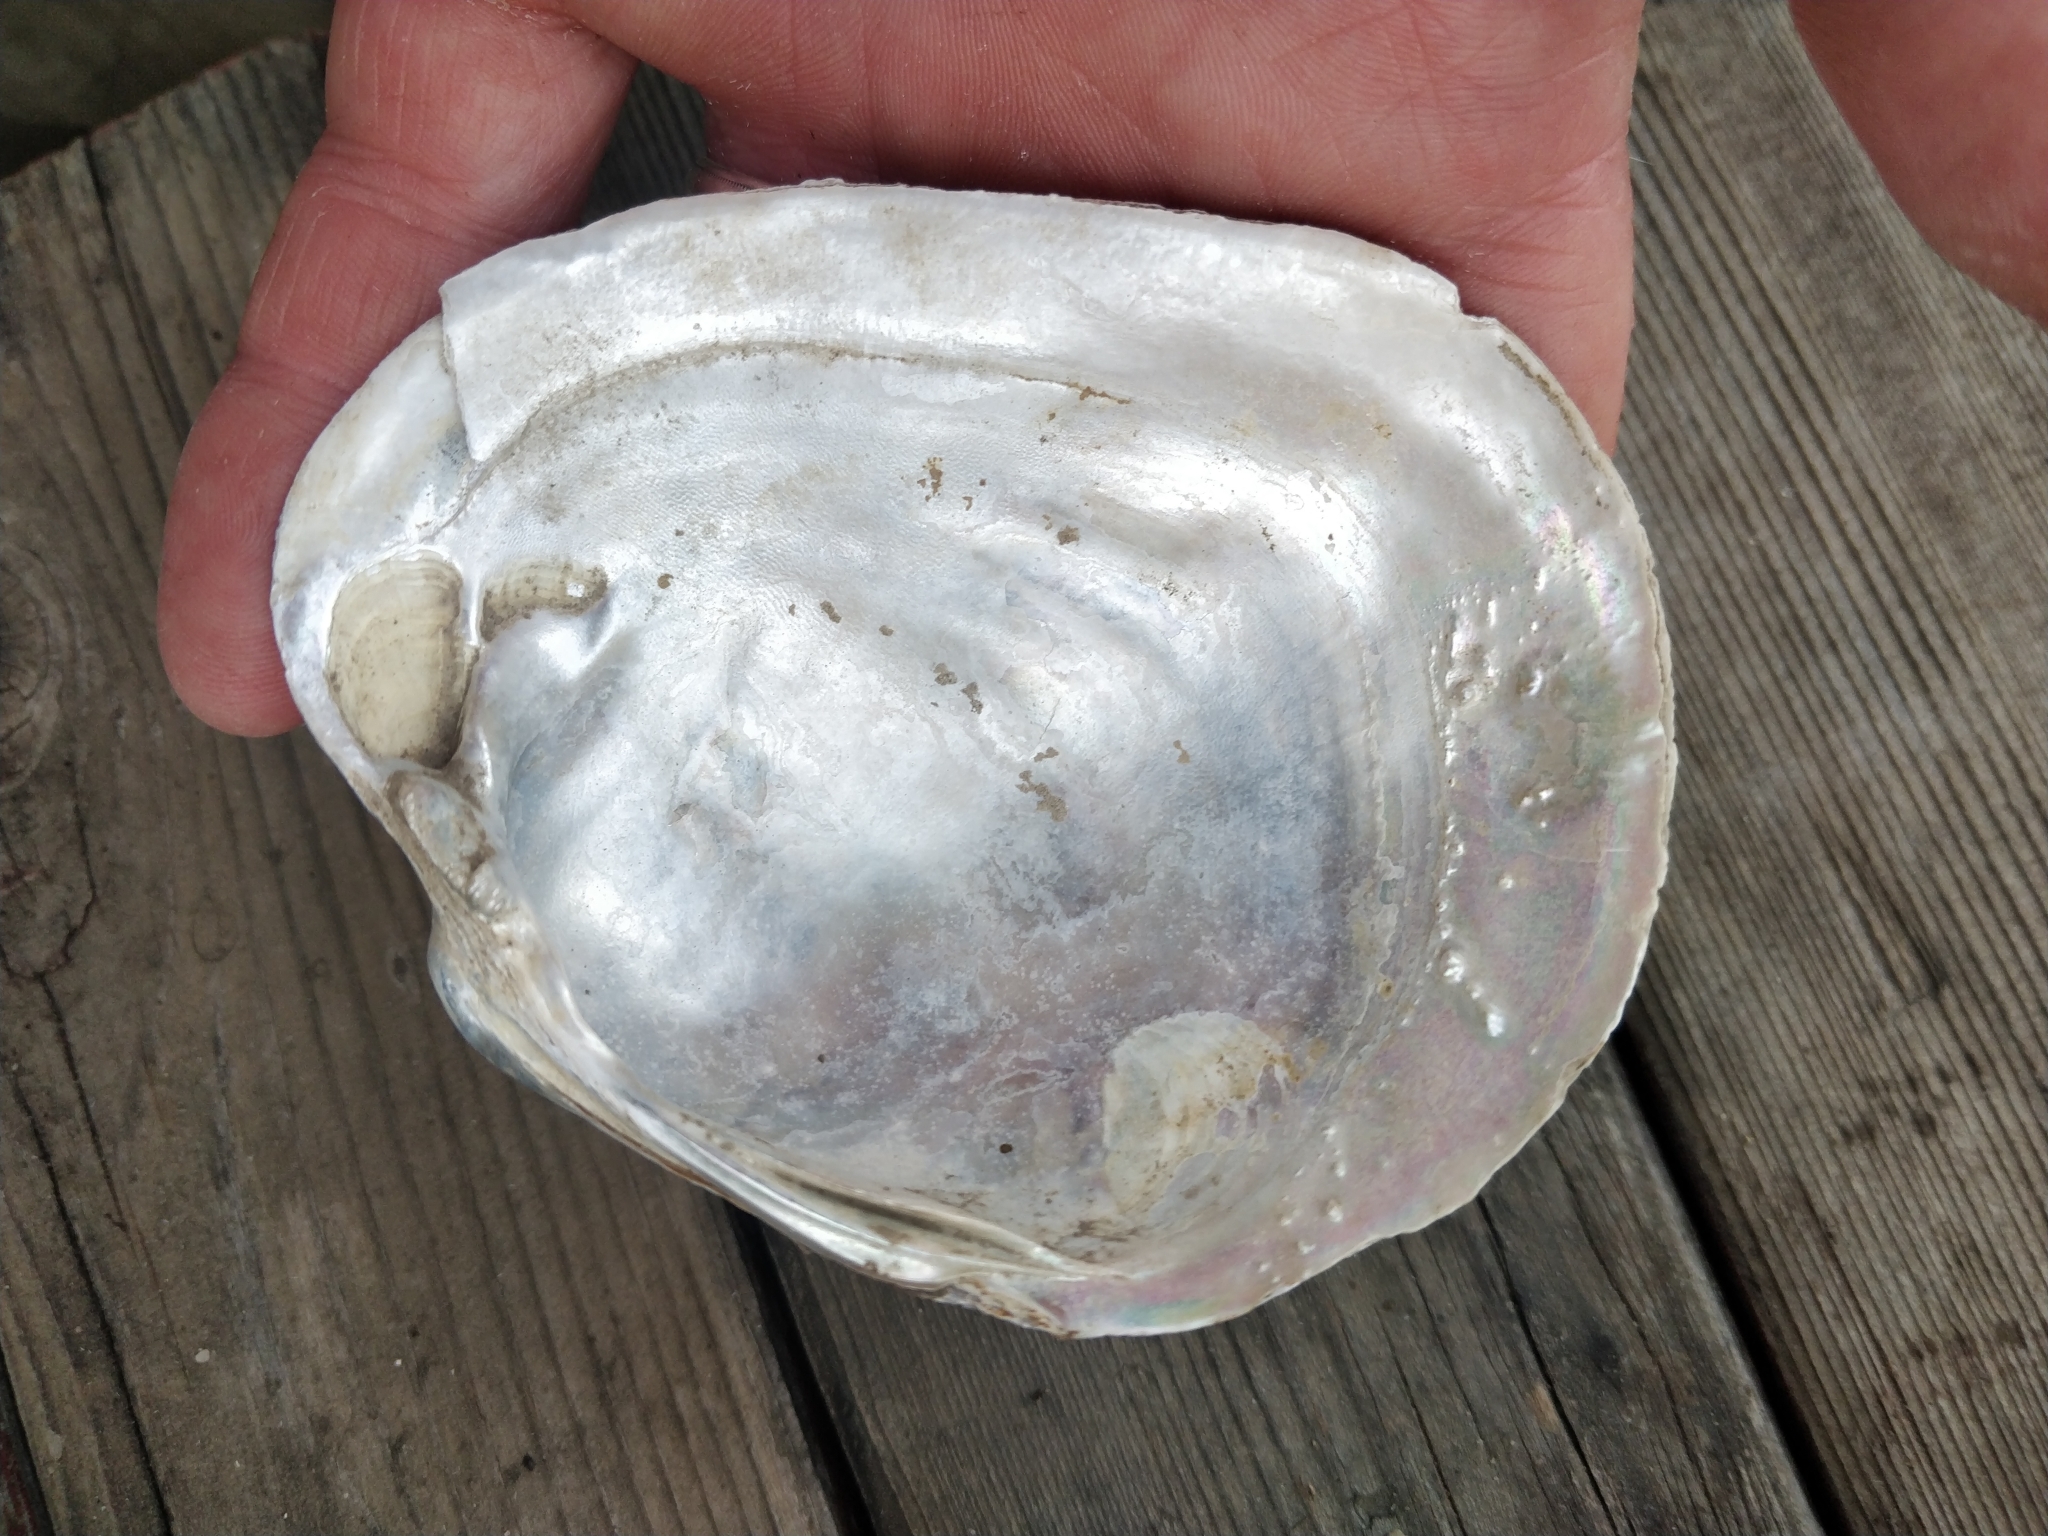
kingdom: Animalia
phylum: Mollusca
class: Bivalvia
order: Unionida
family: Unionidae
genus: Lampsilis
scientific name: Lampsilis cardium
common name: Plain pocketbook
